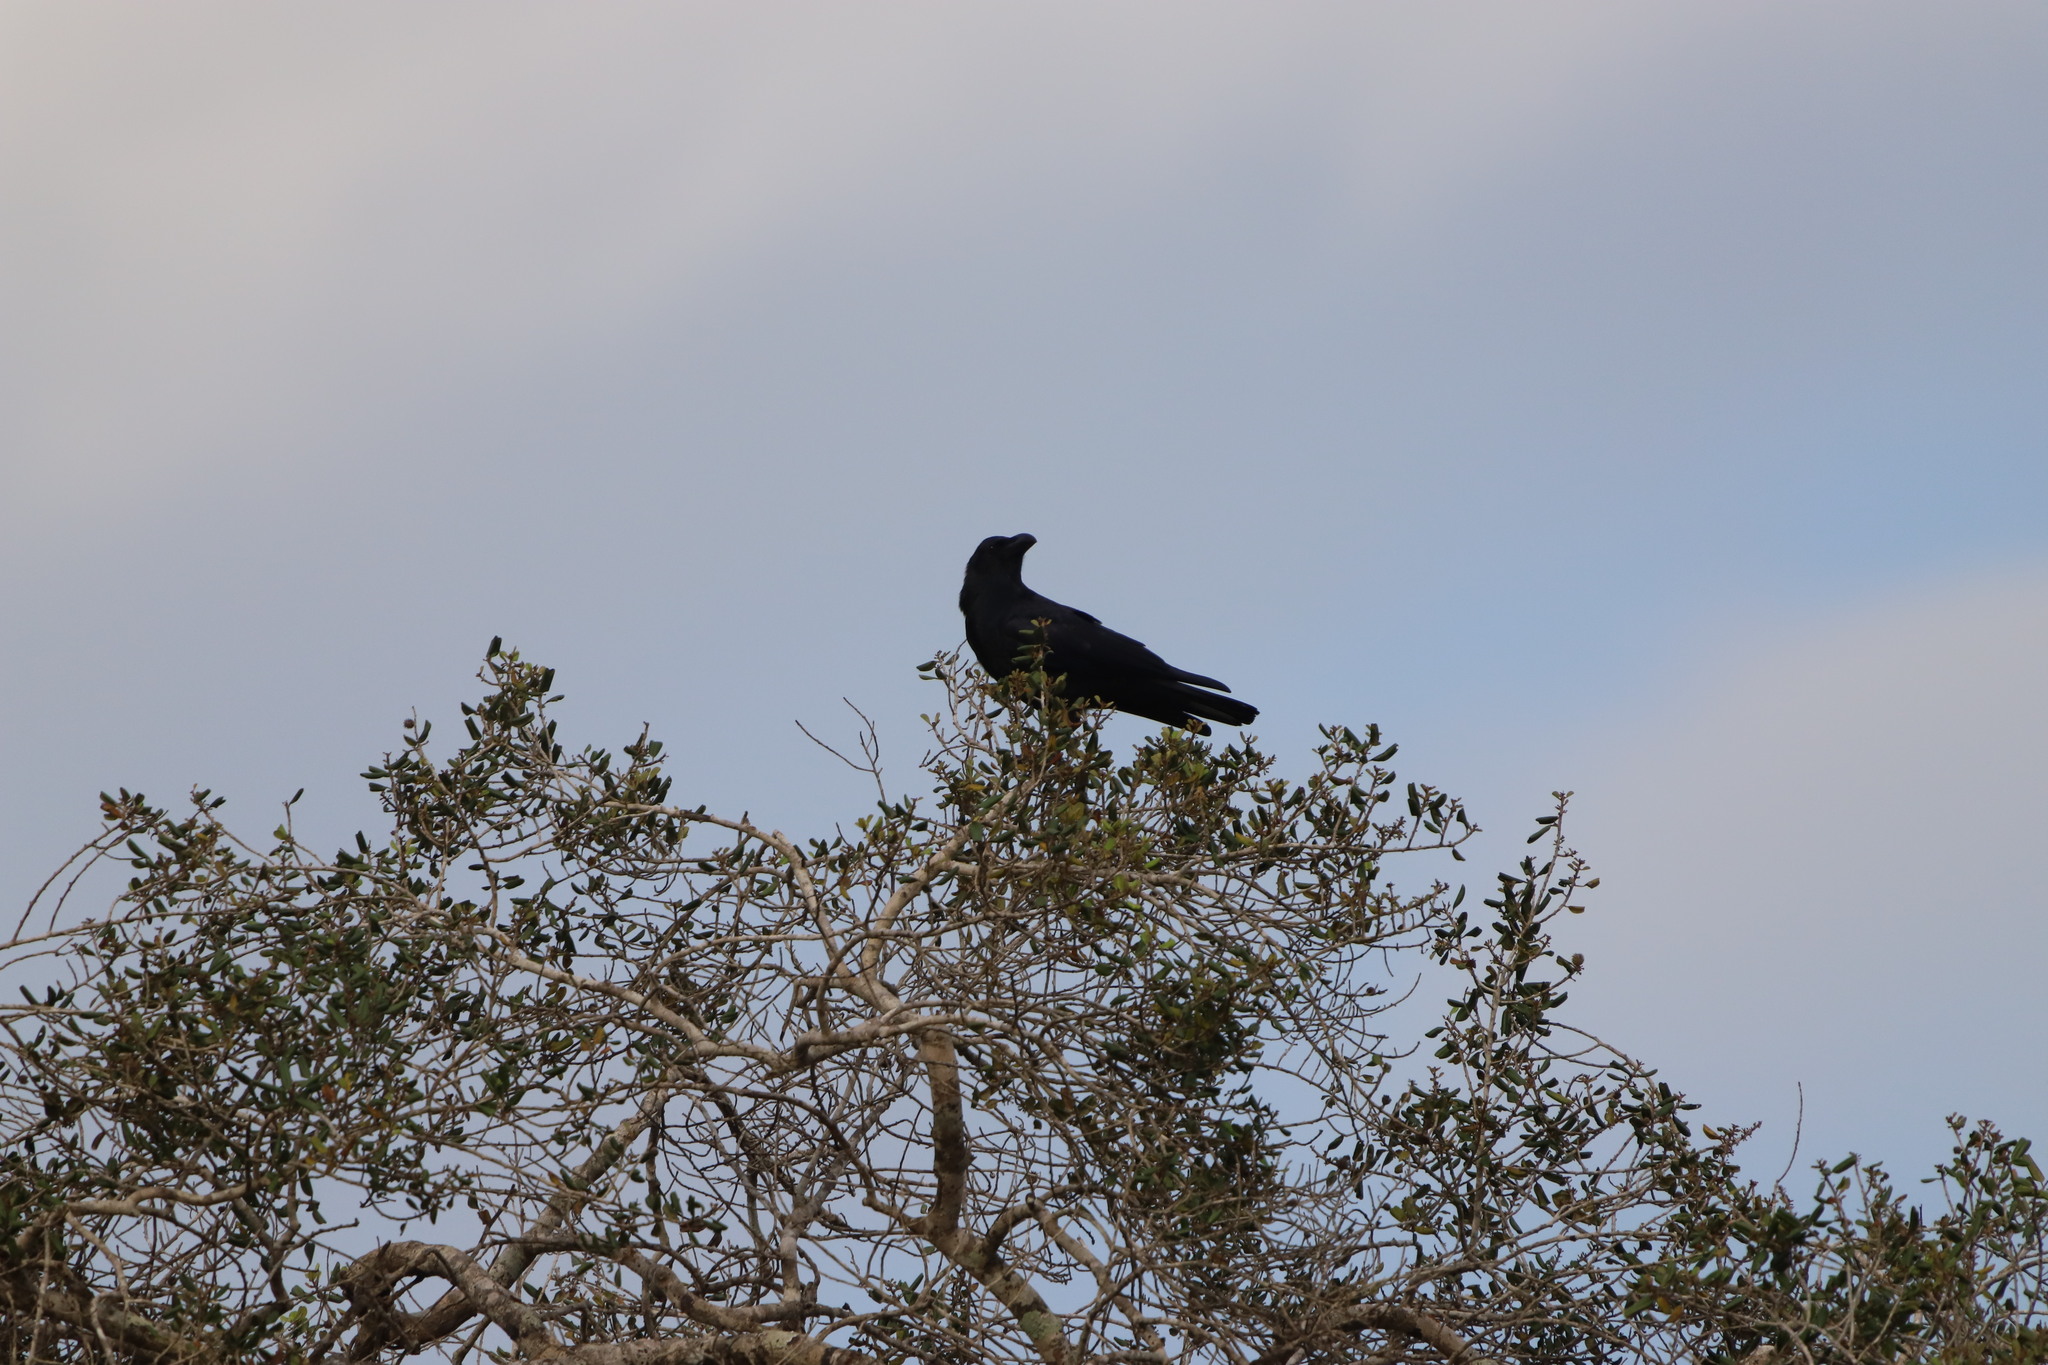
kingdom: Animalia
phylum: Chordata
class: Aves
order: Passeriformes
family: Corvidae
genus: Corvus
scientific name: Corvus macrorhynchos
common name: Large-billed crow
